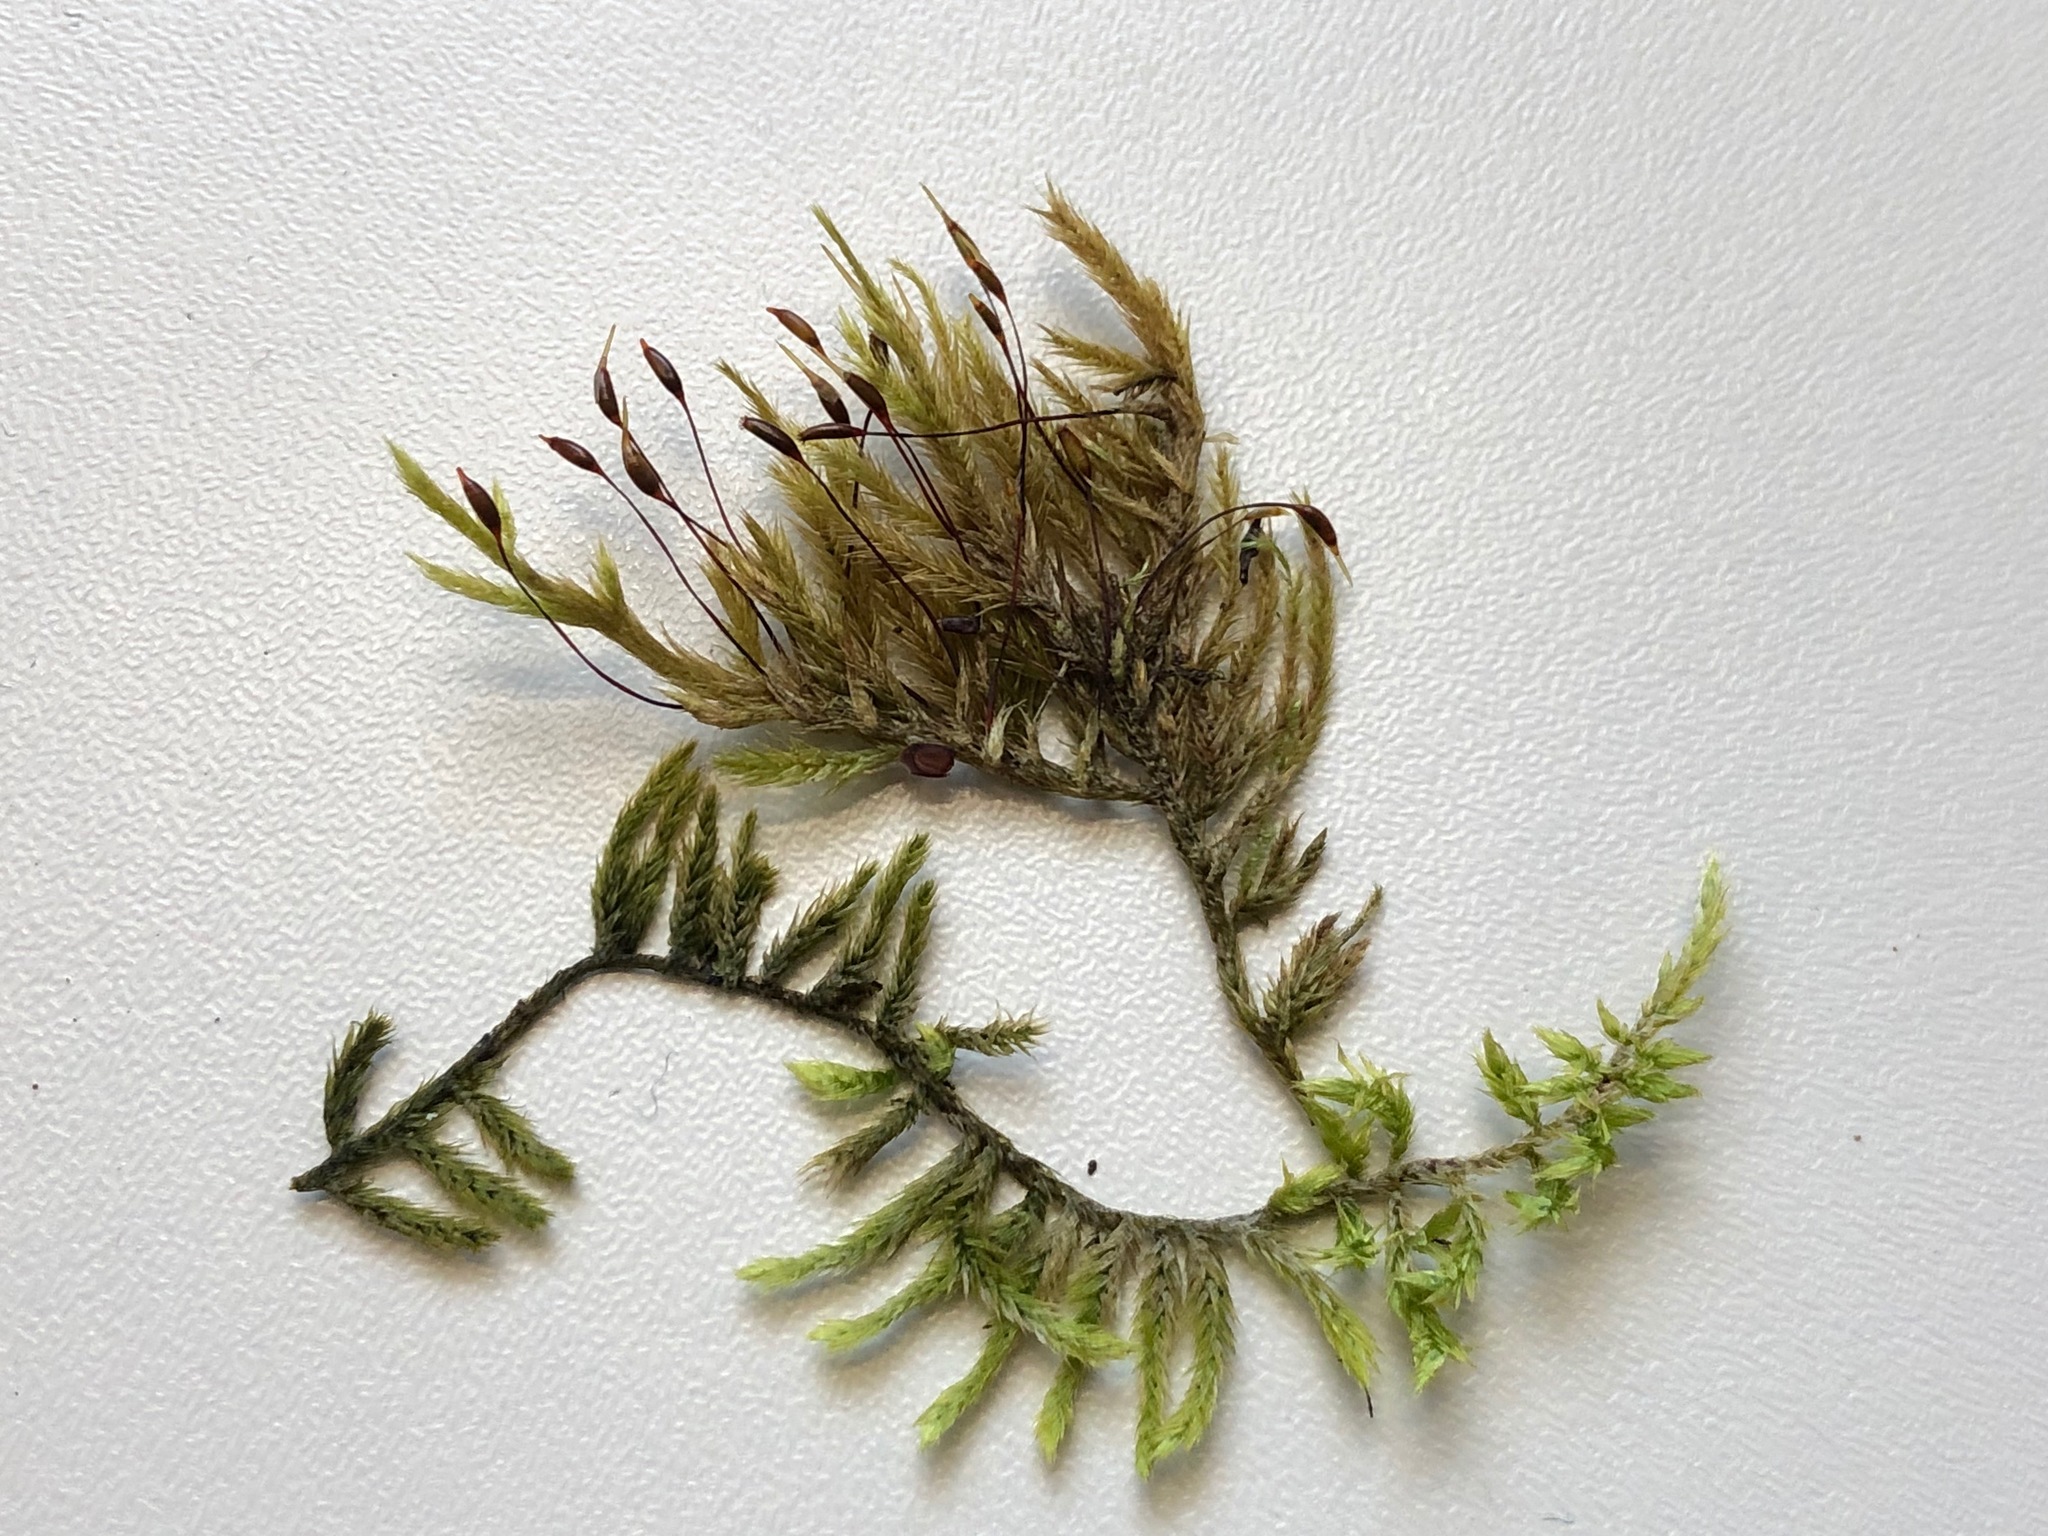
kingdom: Plantae
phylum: Bryophyta
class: Bryopsida
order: Hypnales
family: Brachytheciaceae
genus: Homalothecium
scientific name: Homalothecium lutescens
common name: Yellow feather-moss
